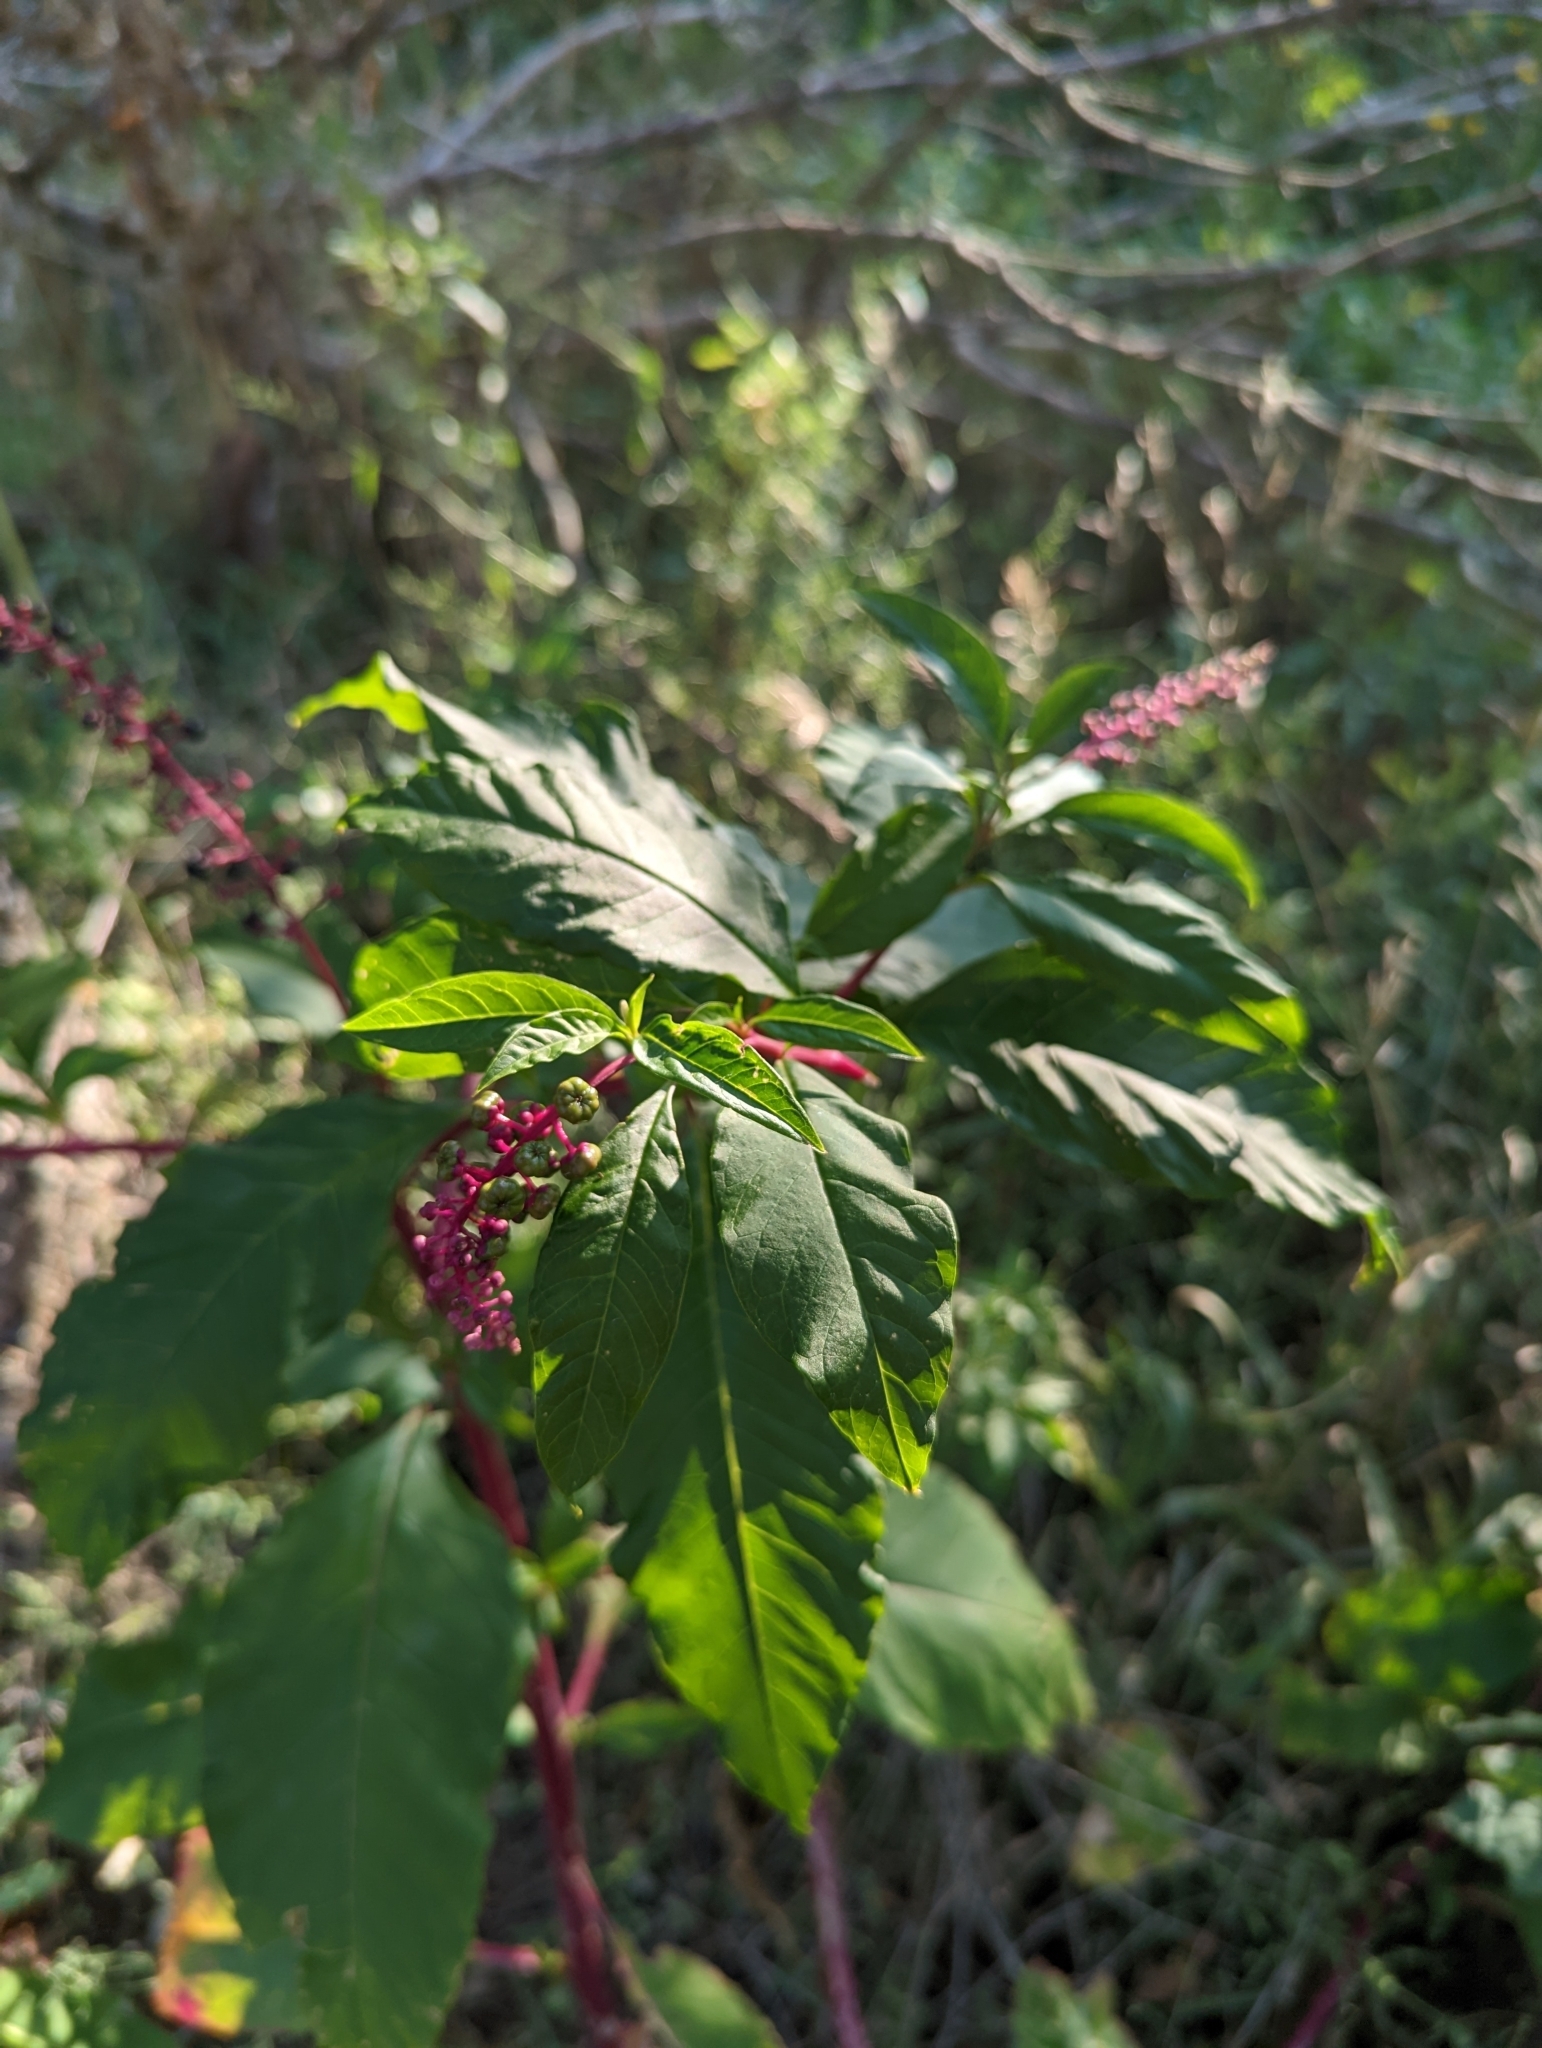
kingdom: Plantae
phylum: Tracheophyta
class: Magnoliopsida
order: Caryophyllales
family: Phytolaccaceae
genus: Phytolacca
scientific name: Phytolacca americana
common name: American pokeweed
